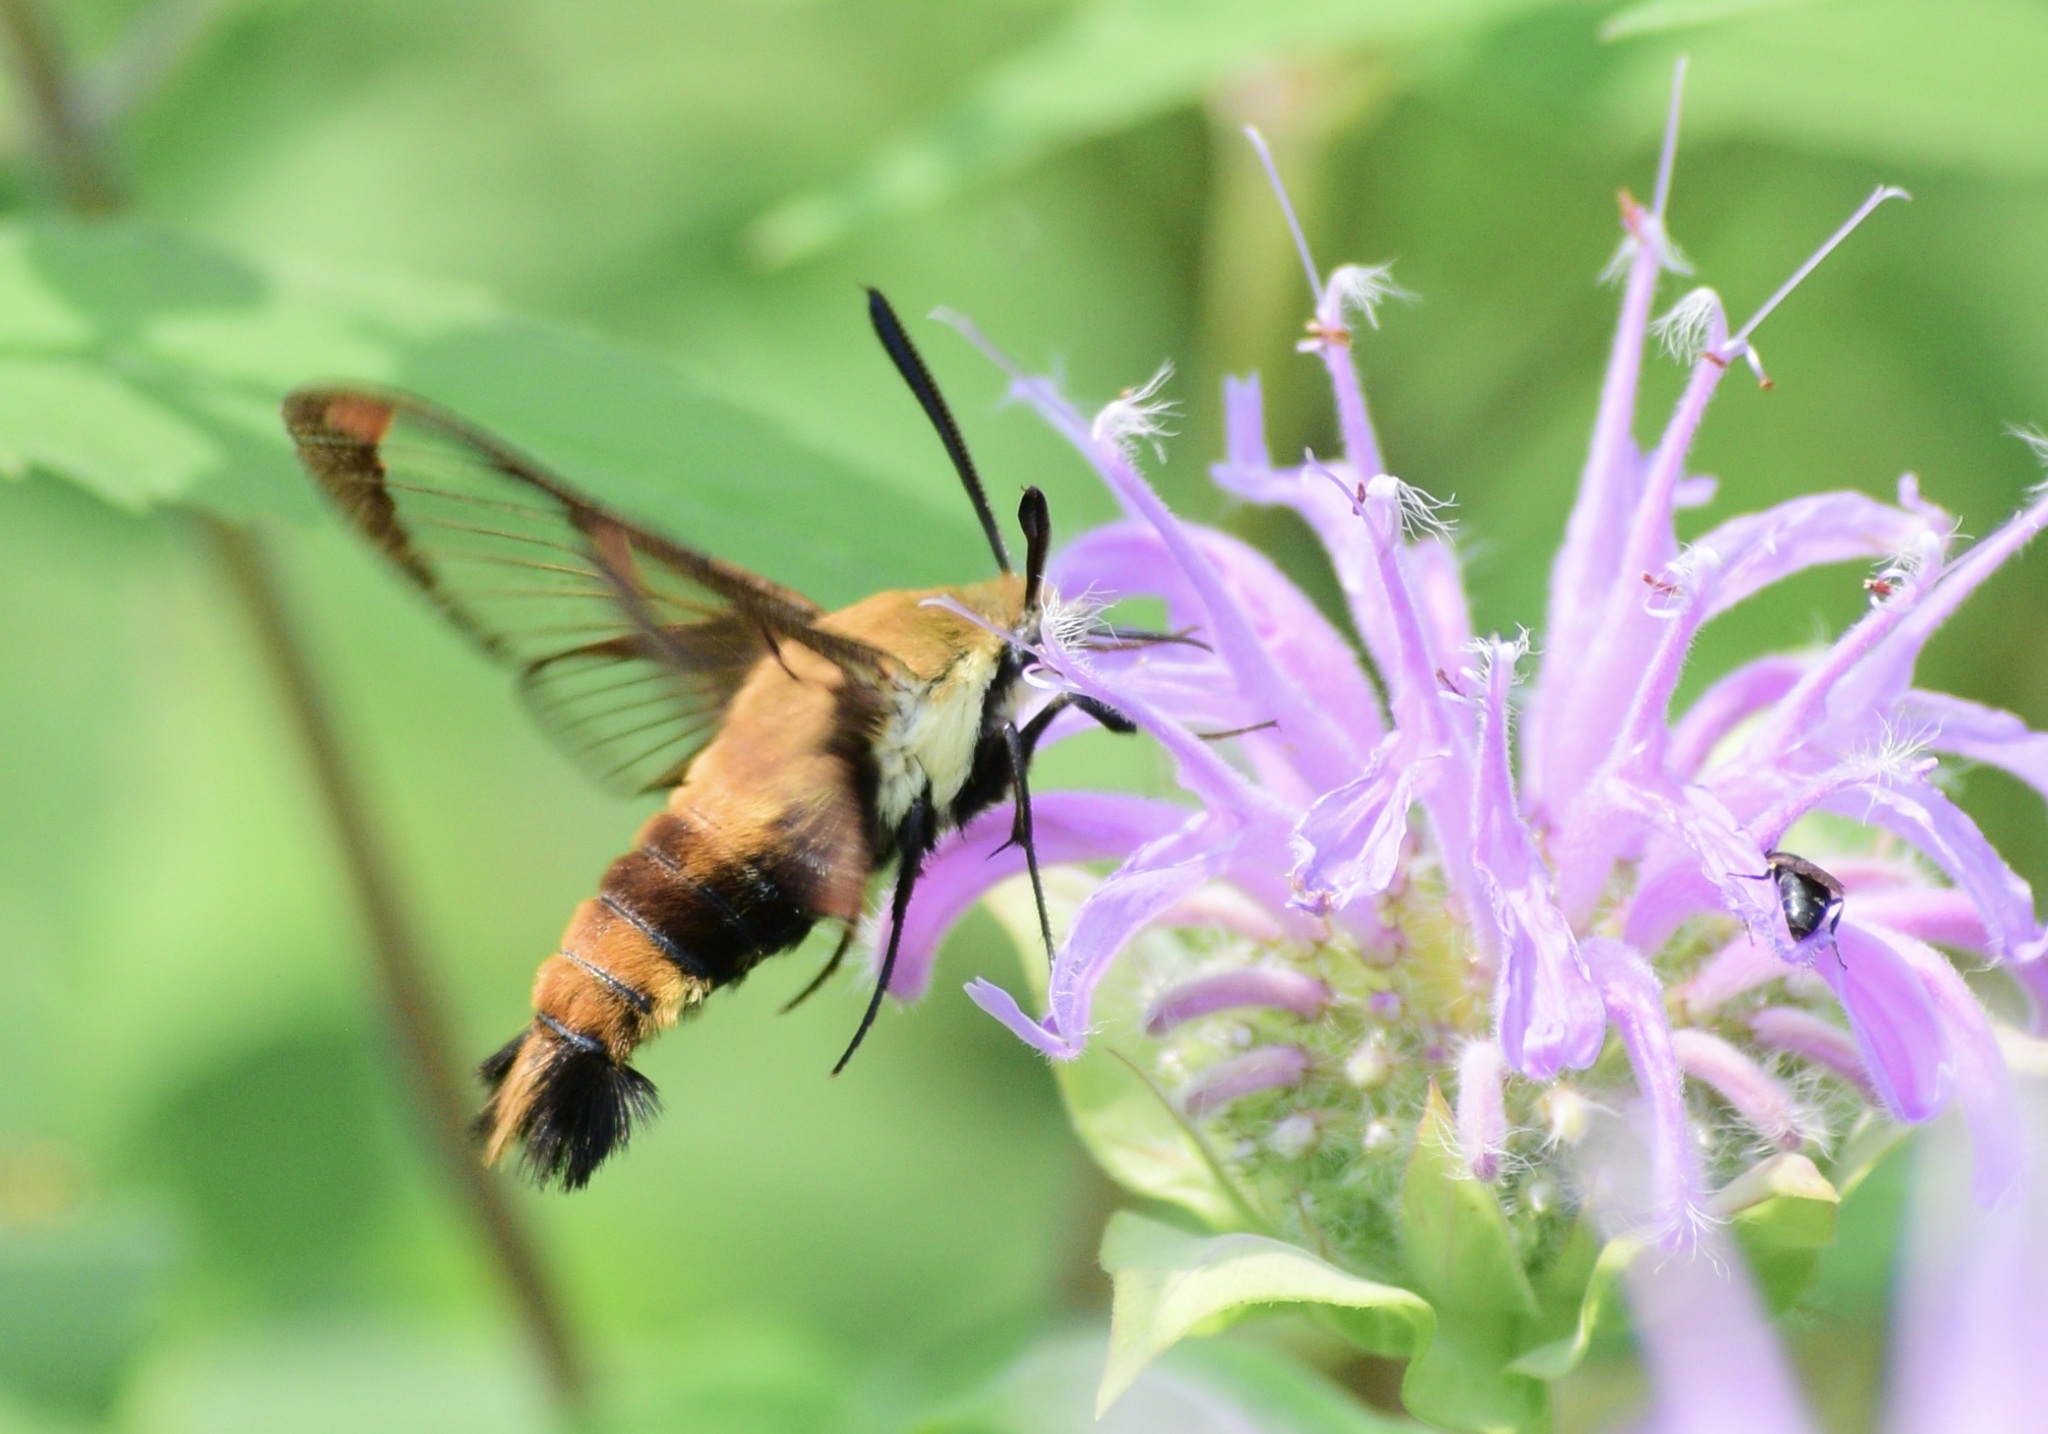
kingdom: Animalia
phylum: Arthropoda
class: Insecta
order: Lepidoptera
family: Sphingidae
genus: Hemaris
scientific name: Hemaris diffinis
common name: Bumblebee moth
